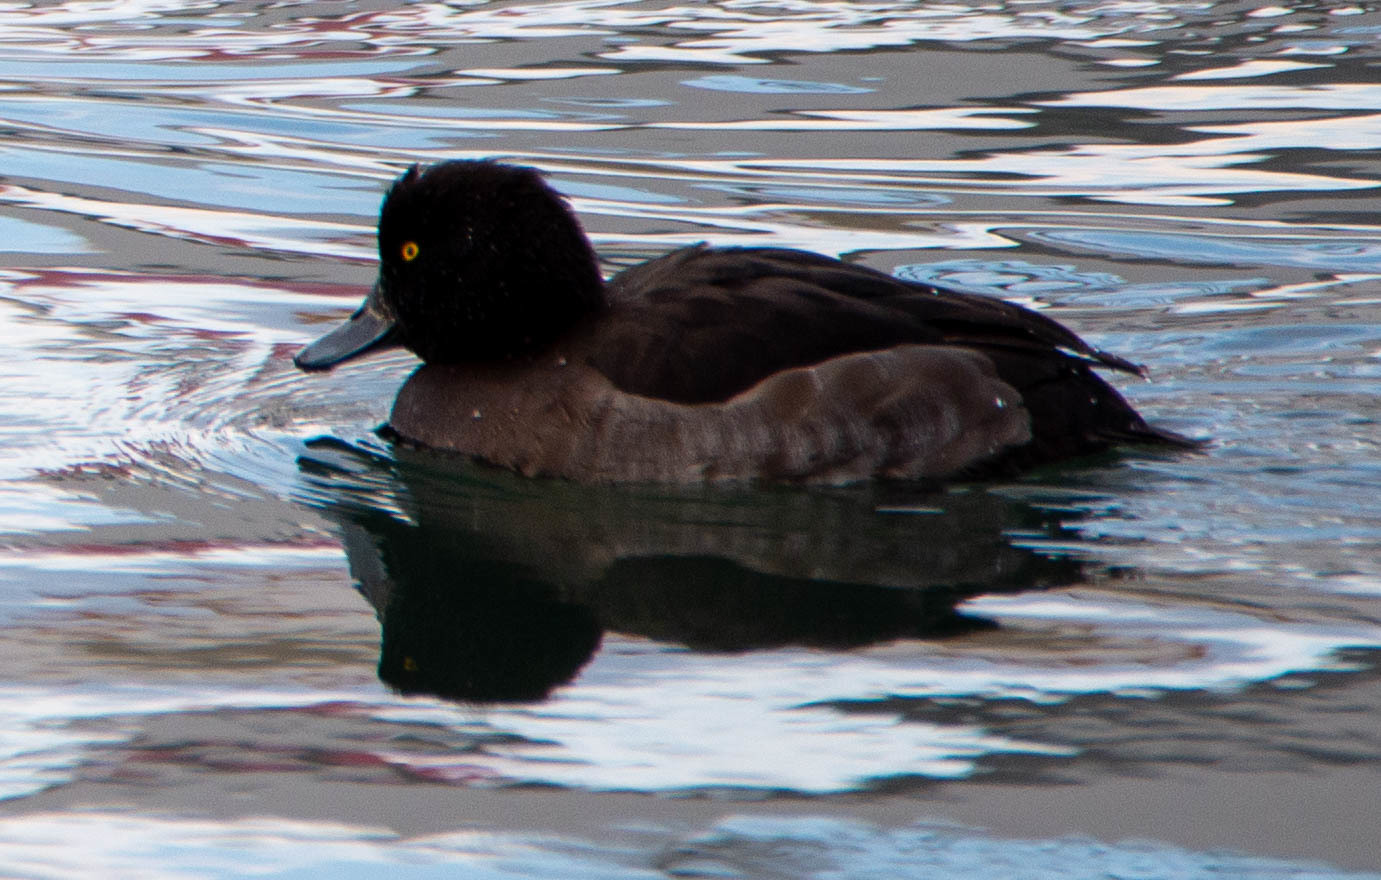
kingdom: Animalia
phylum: Chordata
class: Aves
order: Anseriformes
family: Anatidae
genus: Aythya
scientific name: Aythya fuligula
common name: Tufted duck
